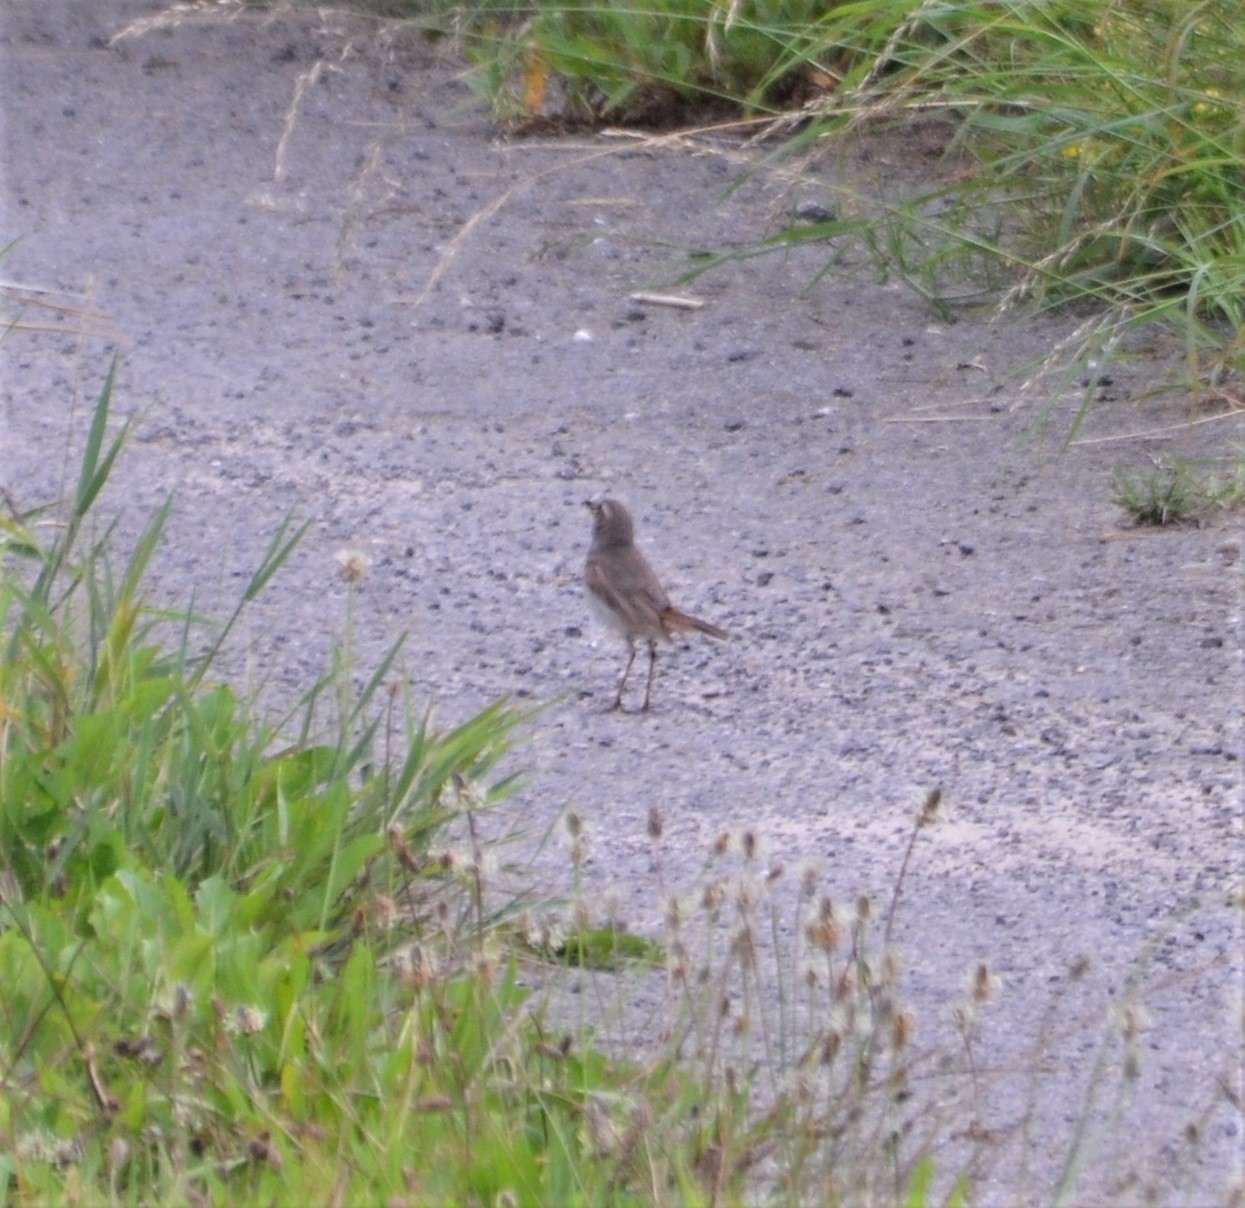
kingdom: Animalia
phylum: Chordata
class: Aves
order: Passeriformes
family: Muscicapidae
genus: Luscinia
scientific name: Luscinia svecica
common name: Bluethroat
